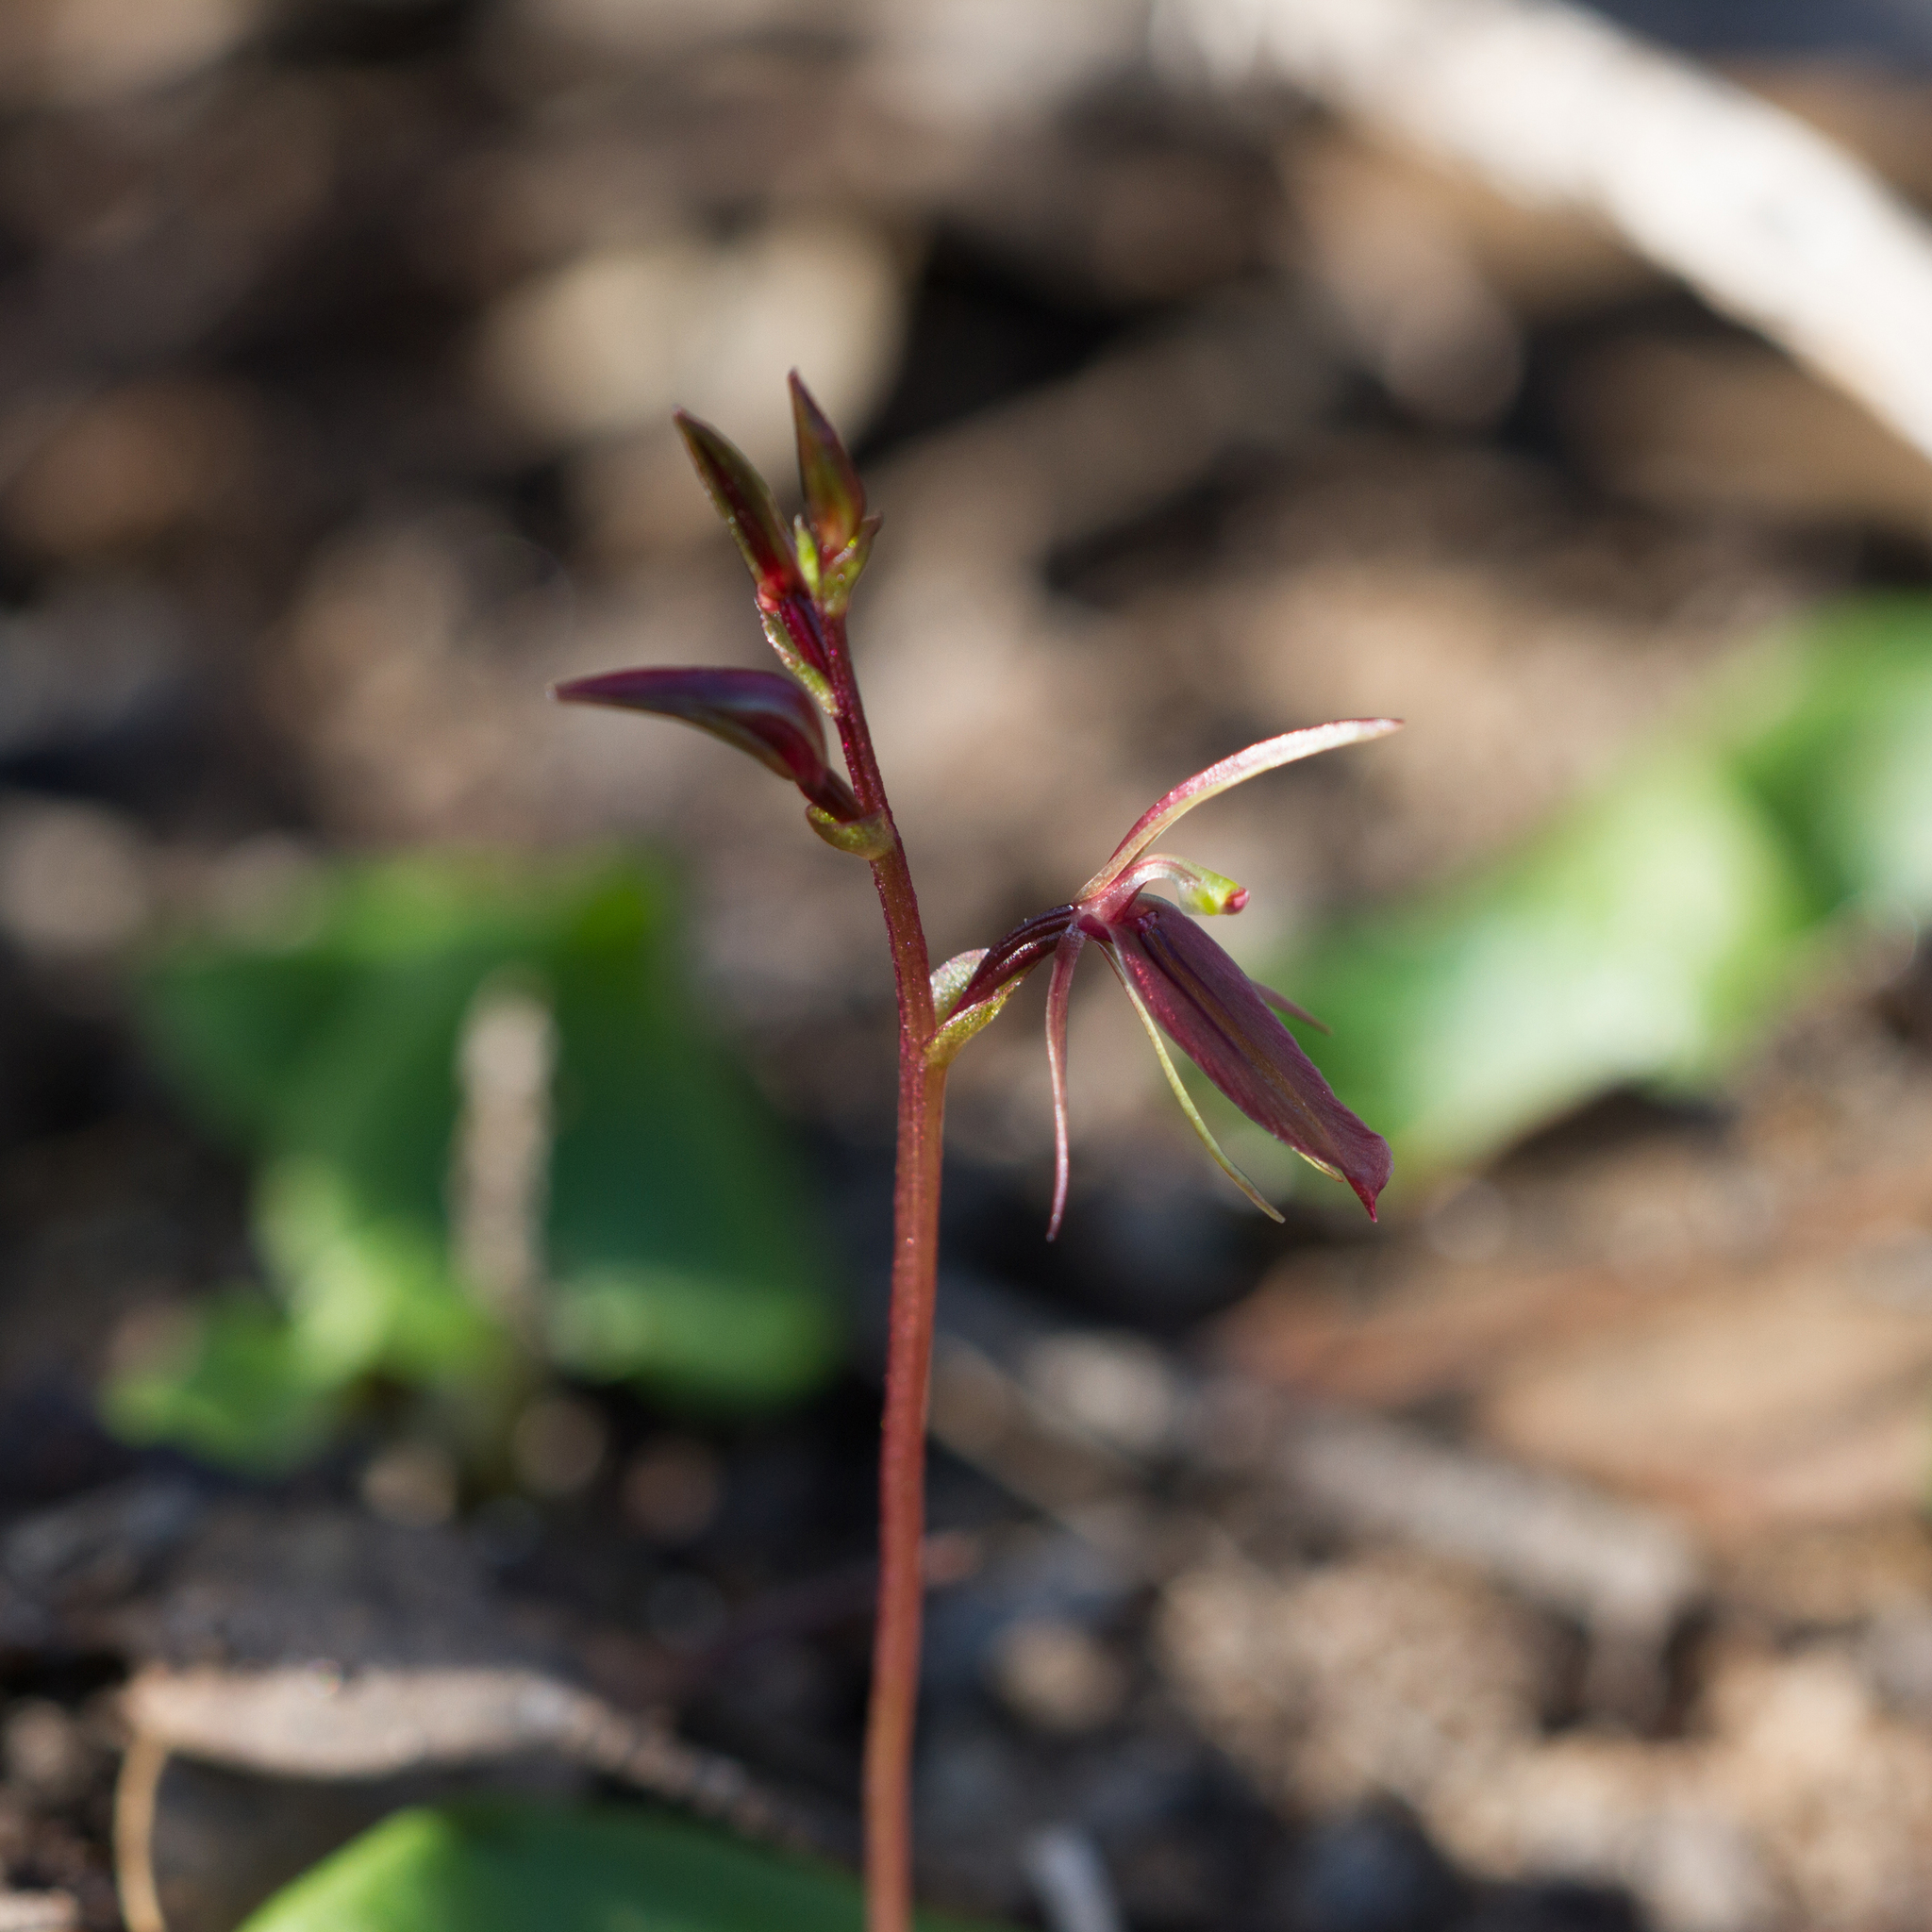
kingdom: Plantae
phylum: Tracheophyta
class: Liliopsida
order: Asparagales
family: Orchidaceae
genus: Cyrtostylis
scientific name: Cyrtostylis robusta
